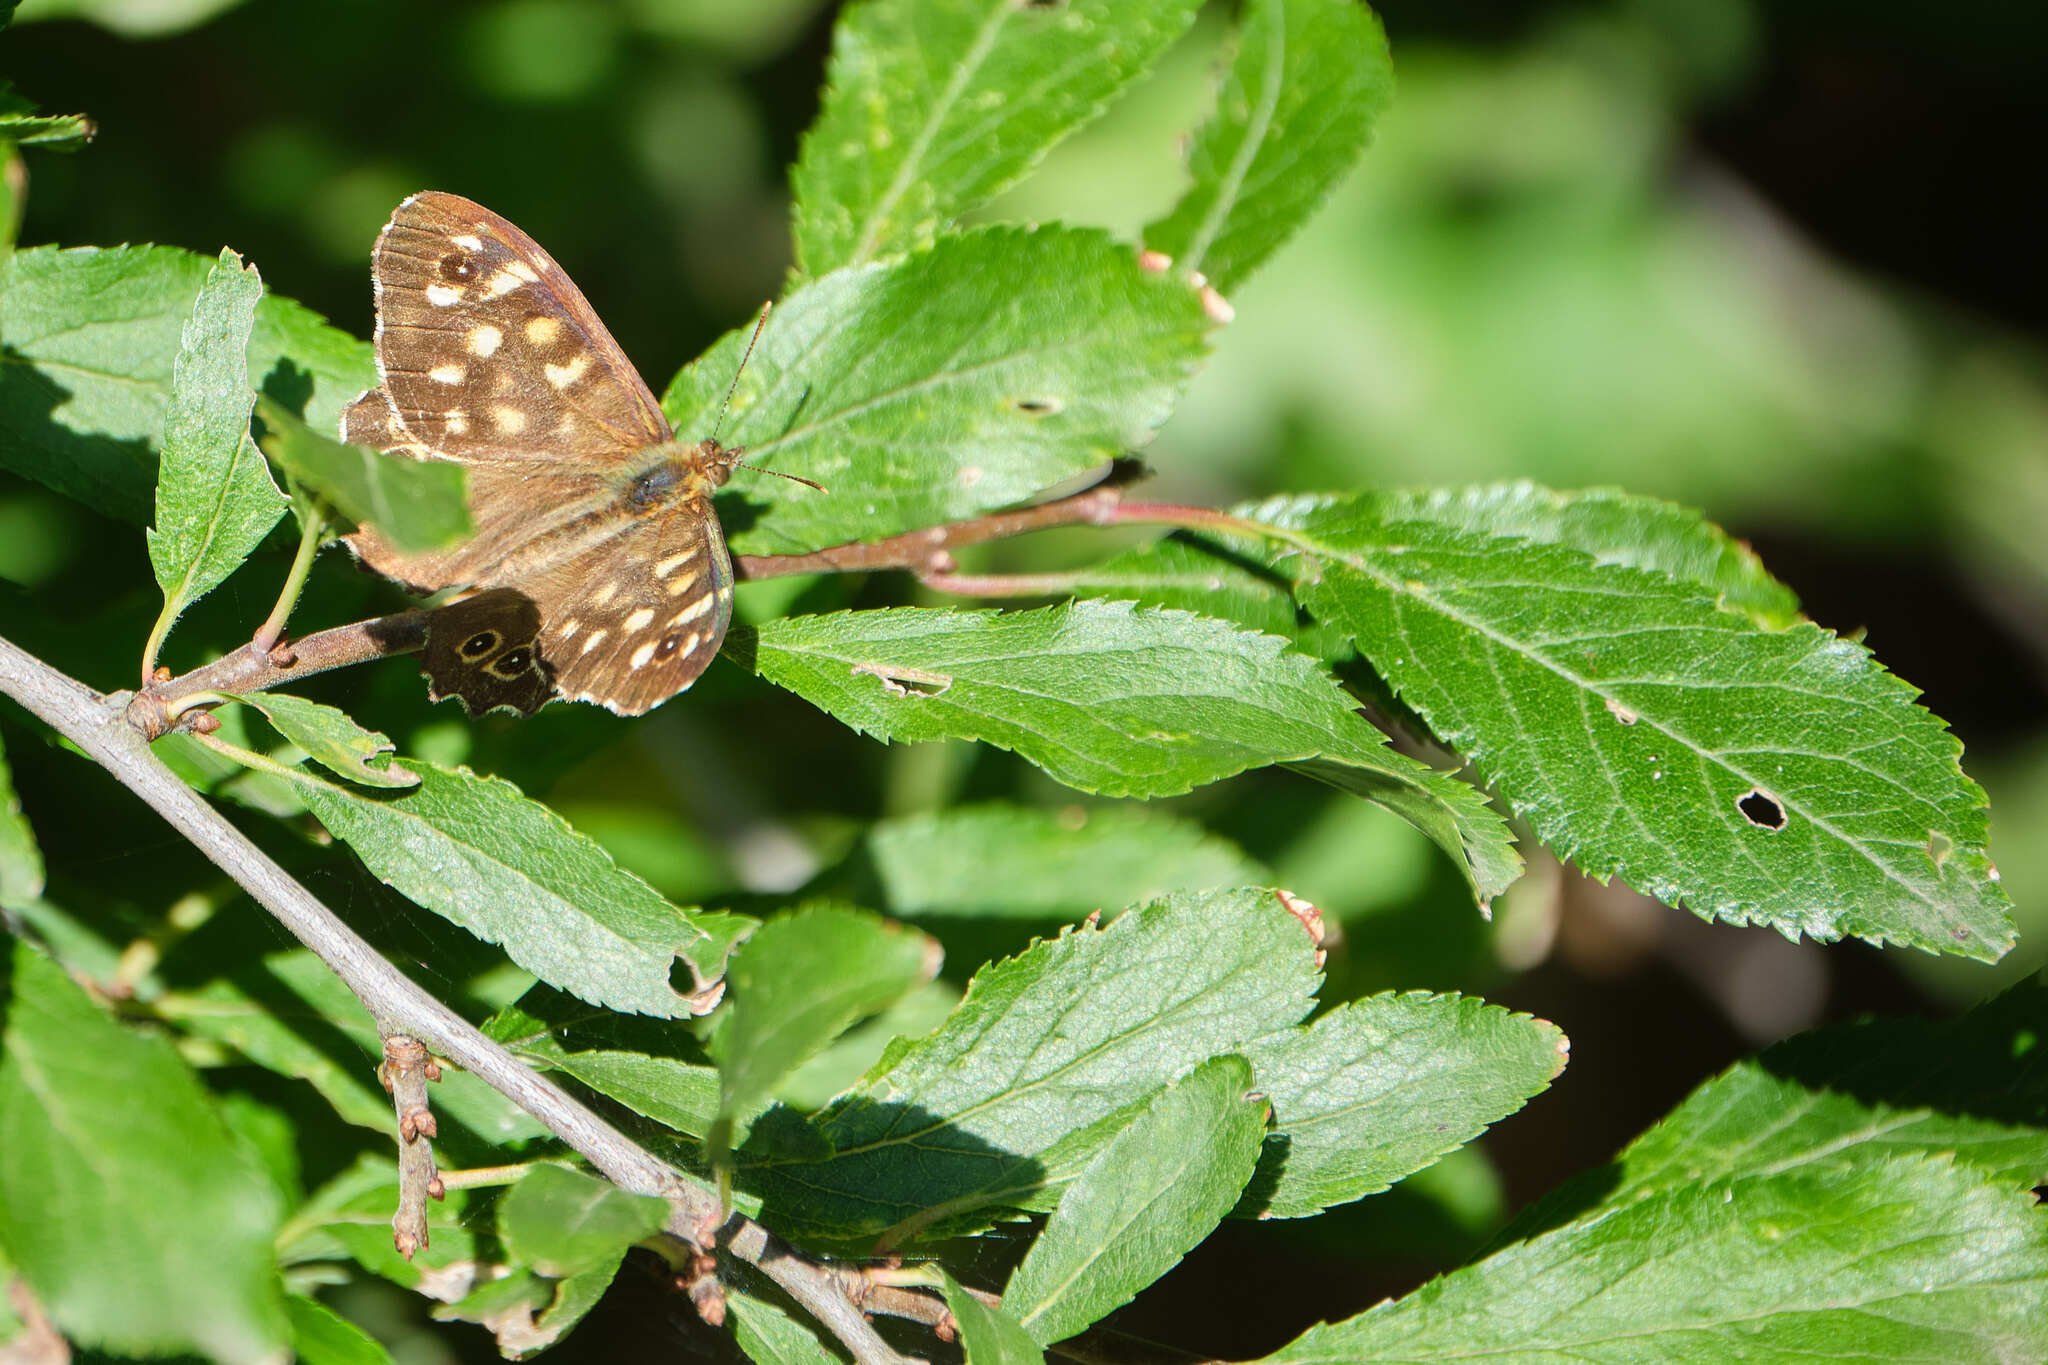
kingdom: Animalia
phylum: Arthropoda
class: Insecta
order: Lepidoptera
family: Nymphalidae
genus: Pararge
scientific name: Pararge aegeria
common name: Speckled wood
